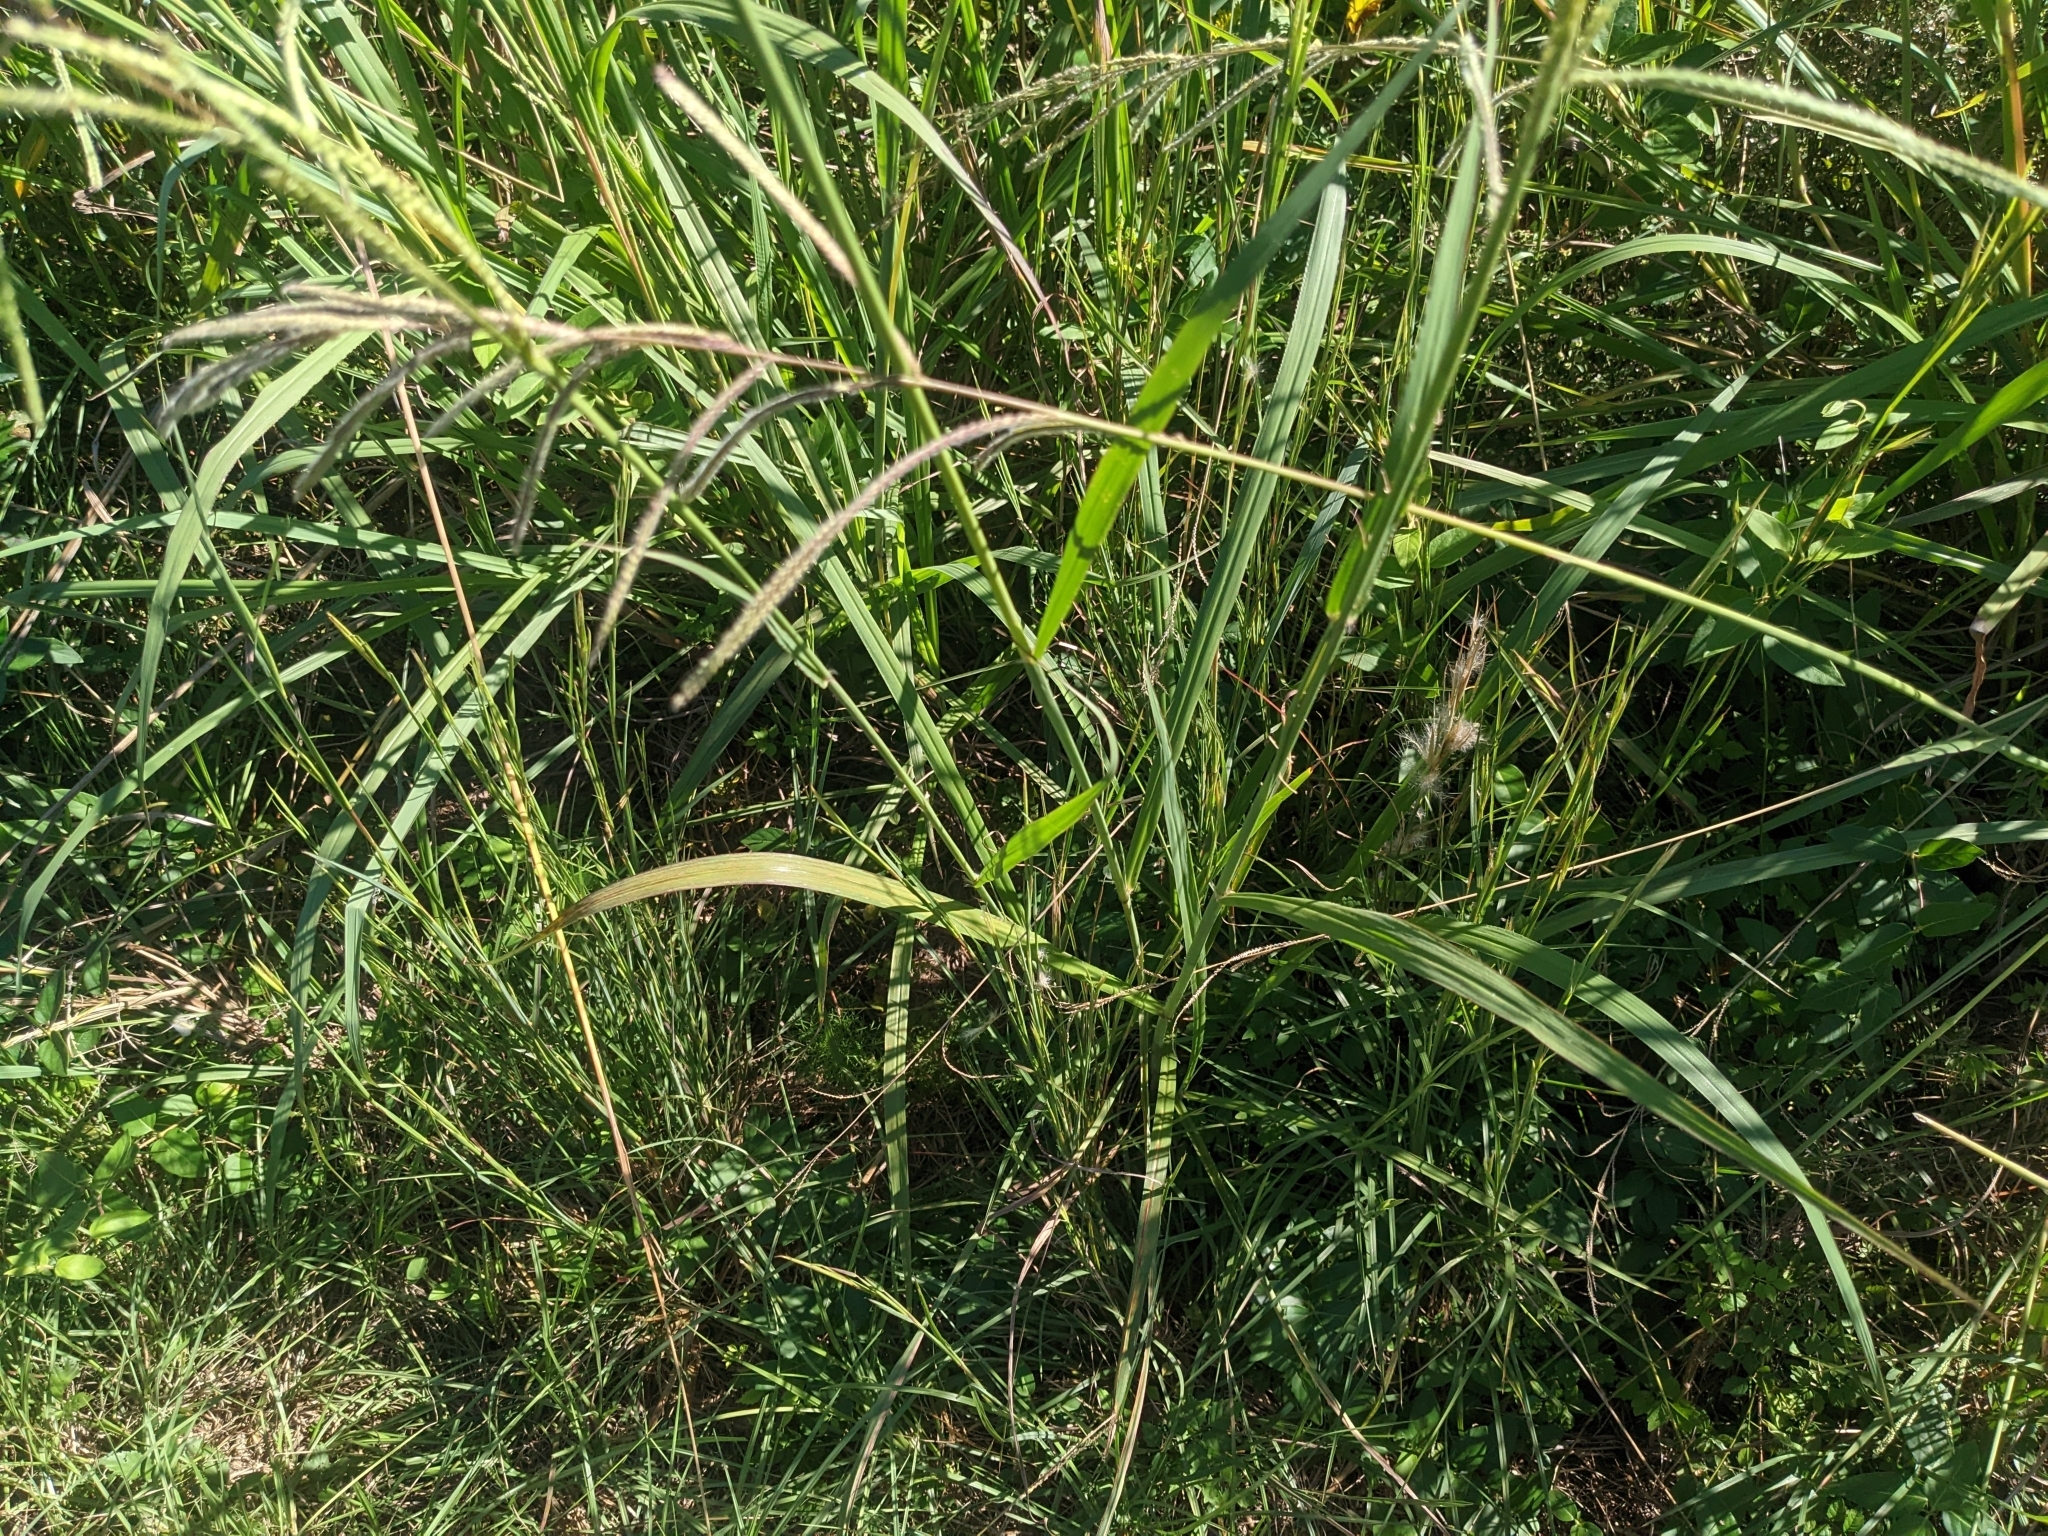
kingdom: Plantae
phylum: Tracheophyta
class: Liliopsida
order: Poales
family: Poaceae
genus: Paspalum
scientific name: Paspalum urvillei
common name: Vasey's grass
